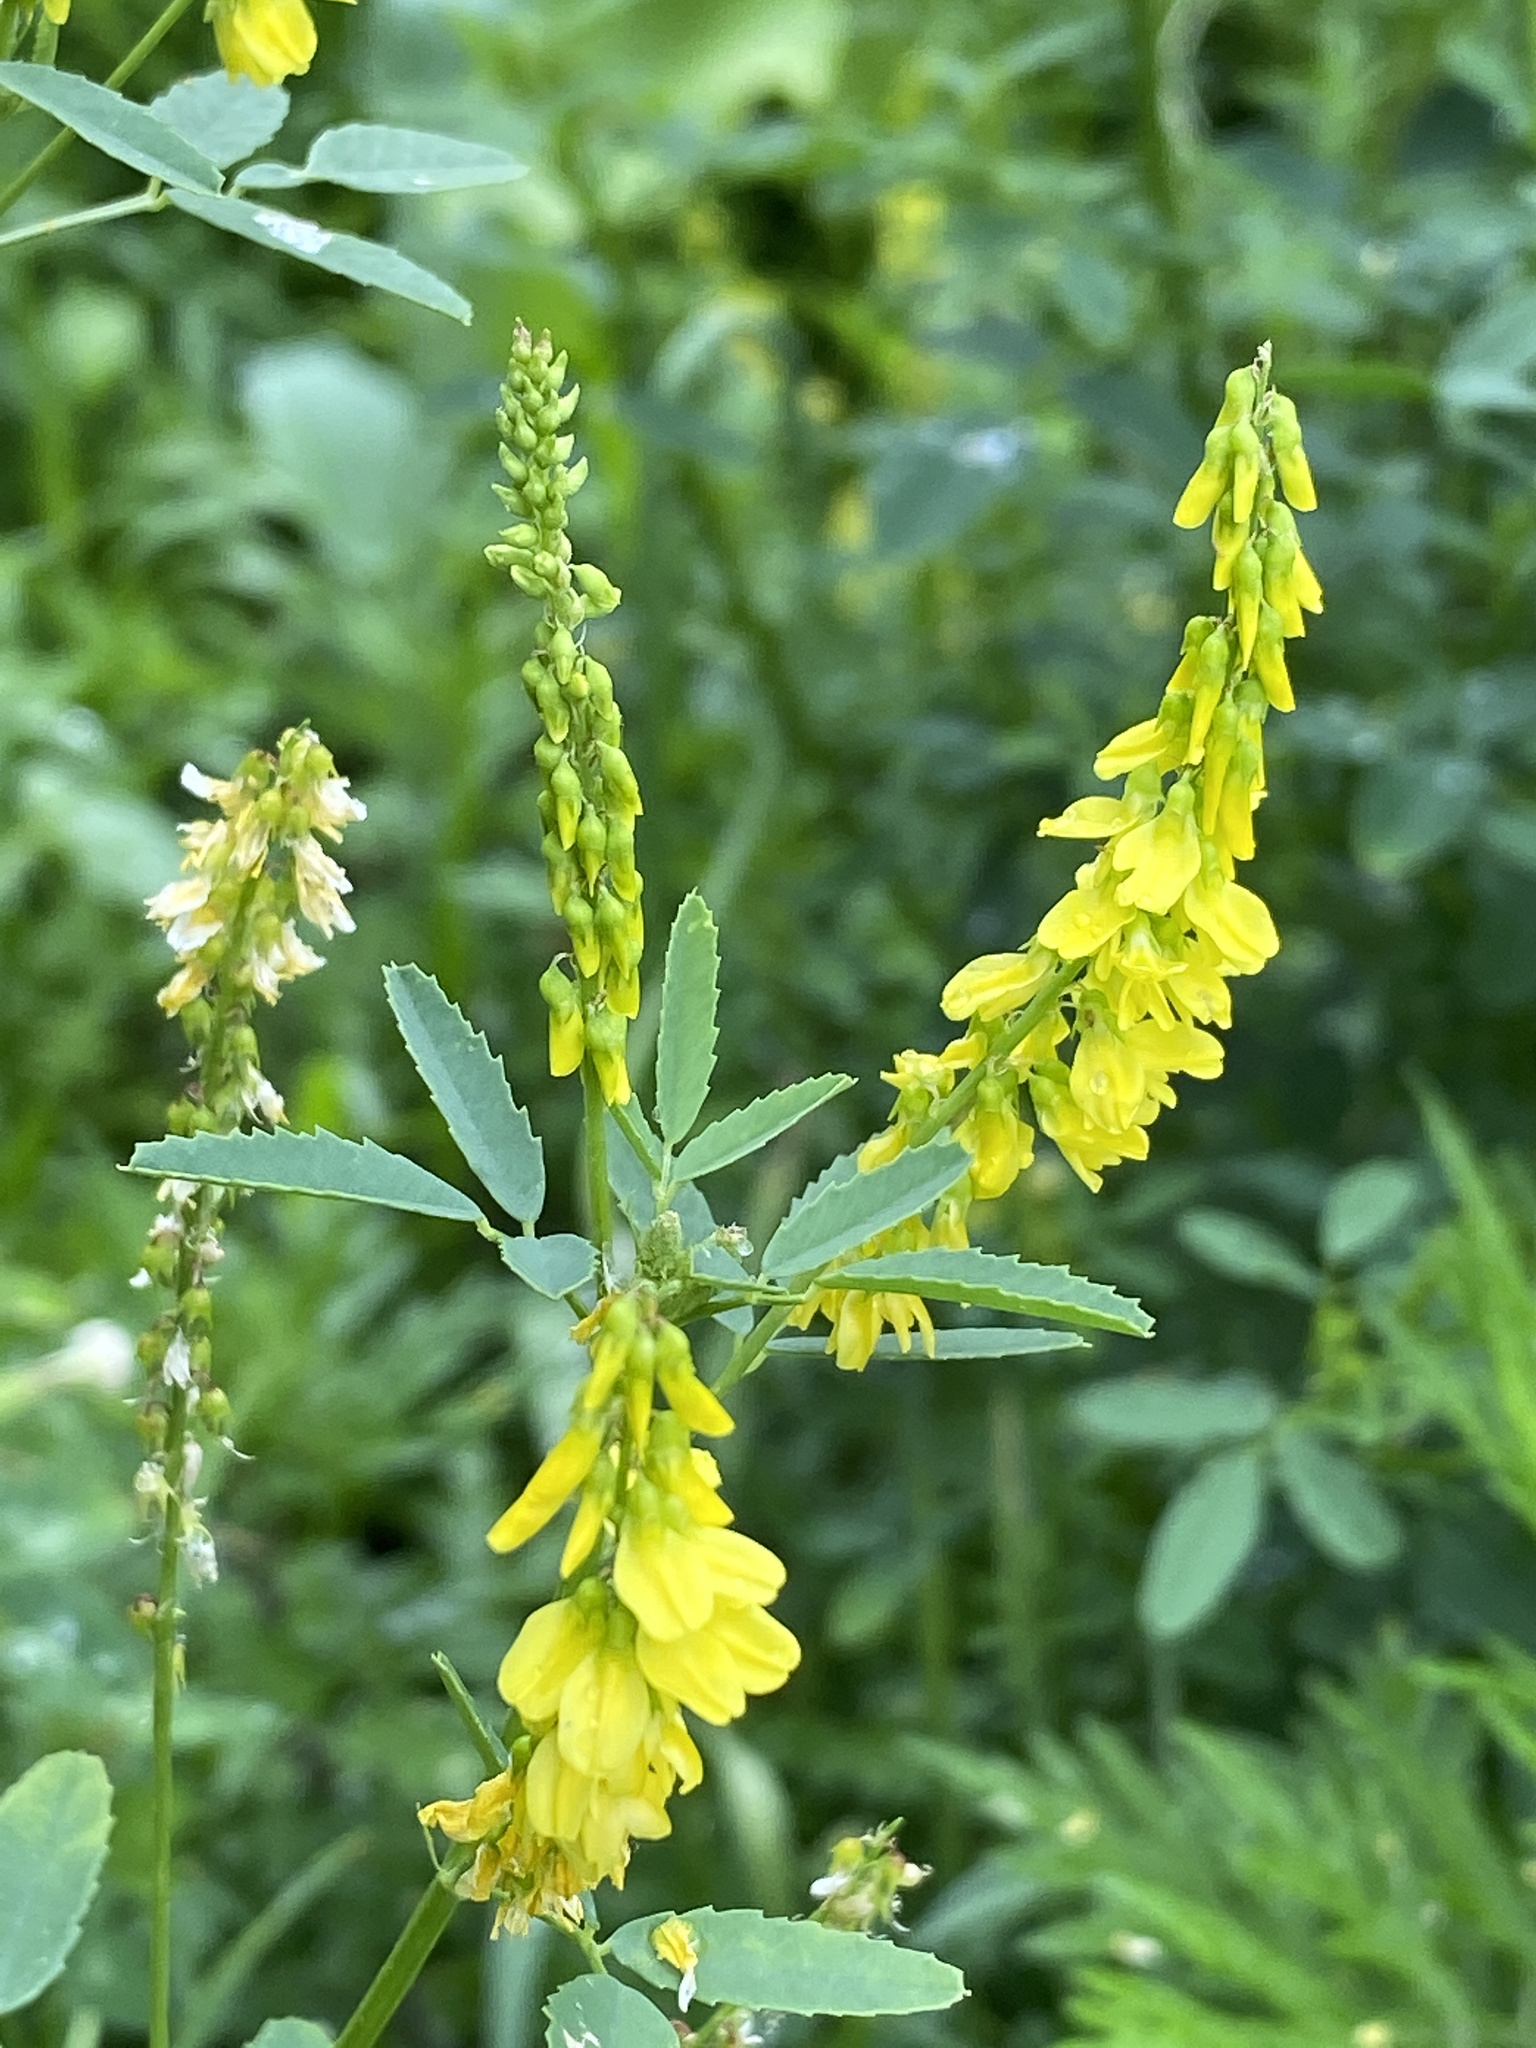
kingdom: Plantae
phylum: Tracheophyta
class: Magnoliopsida
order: Fabales
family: Fabaceae
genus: Melilotus
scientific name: Melilotus officinalis
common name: Sweetclover
